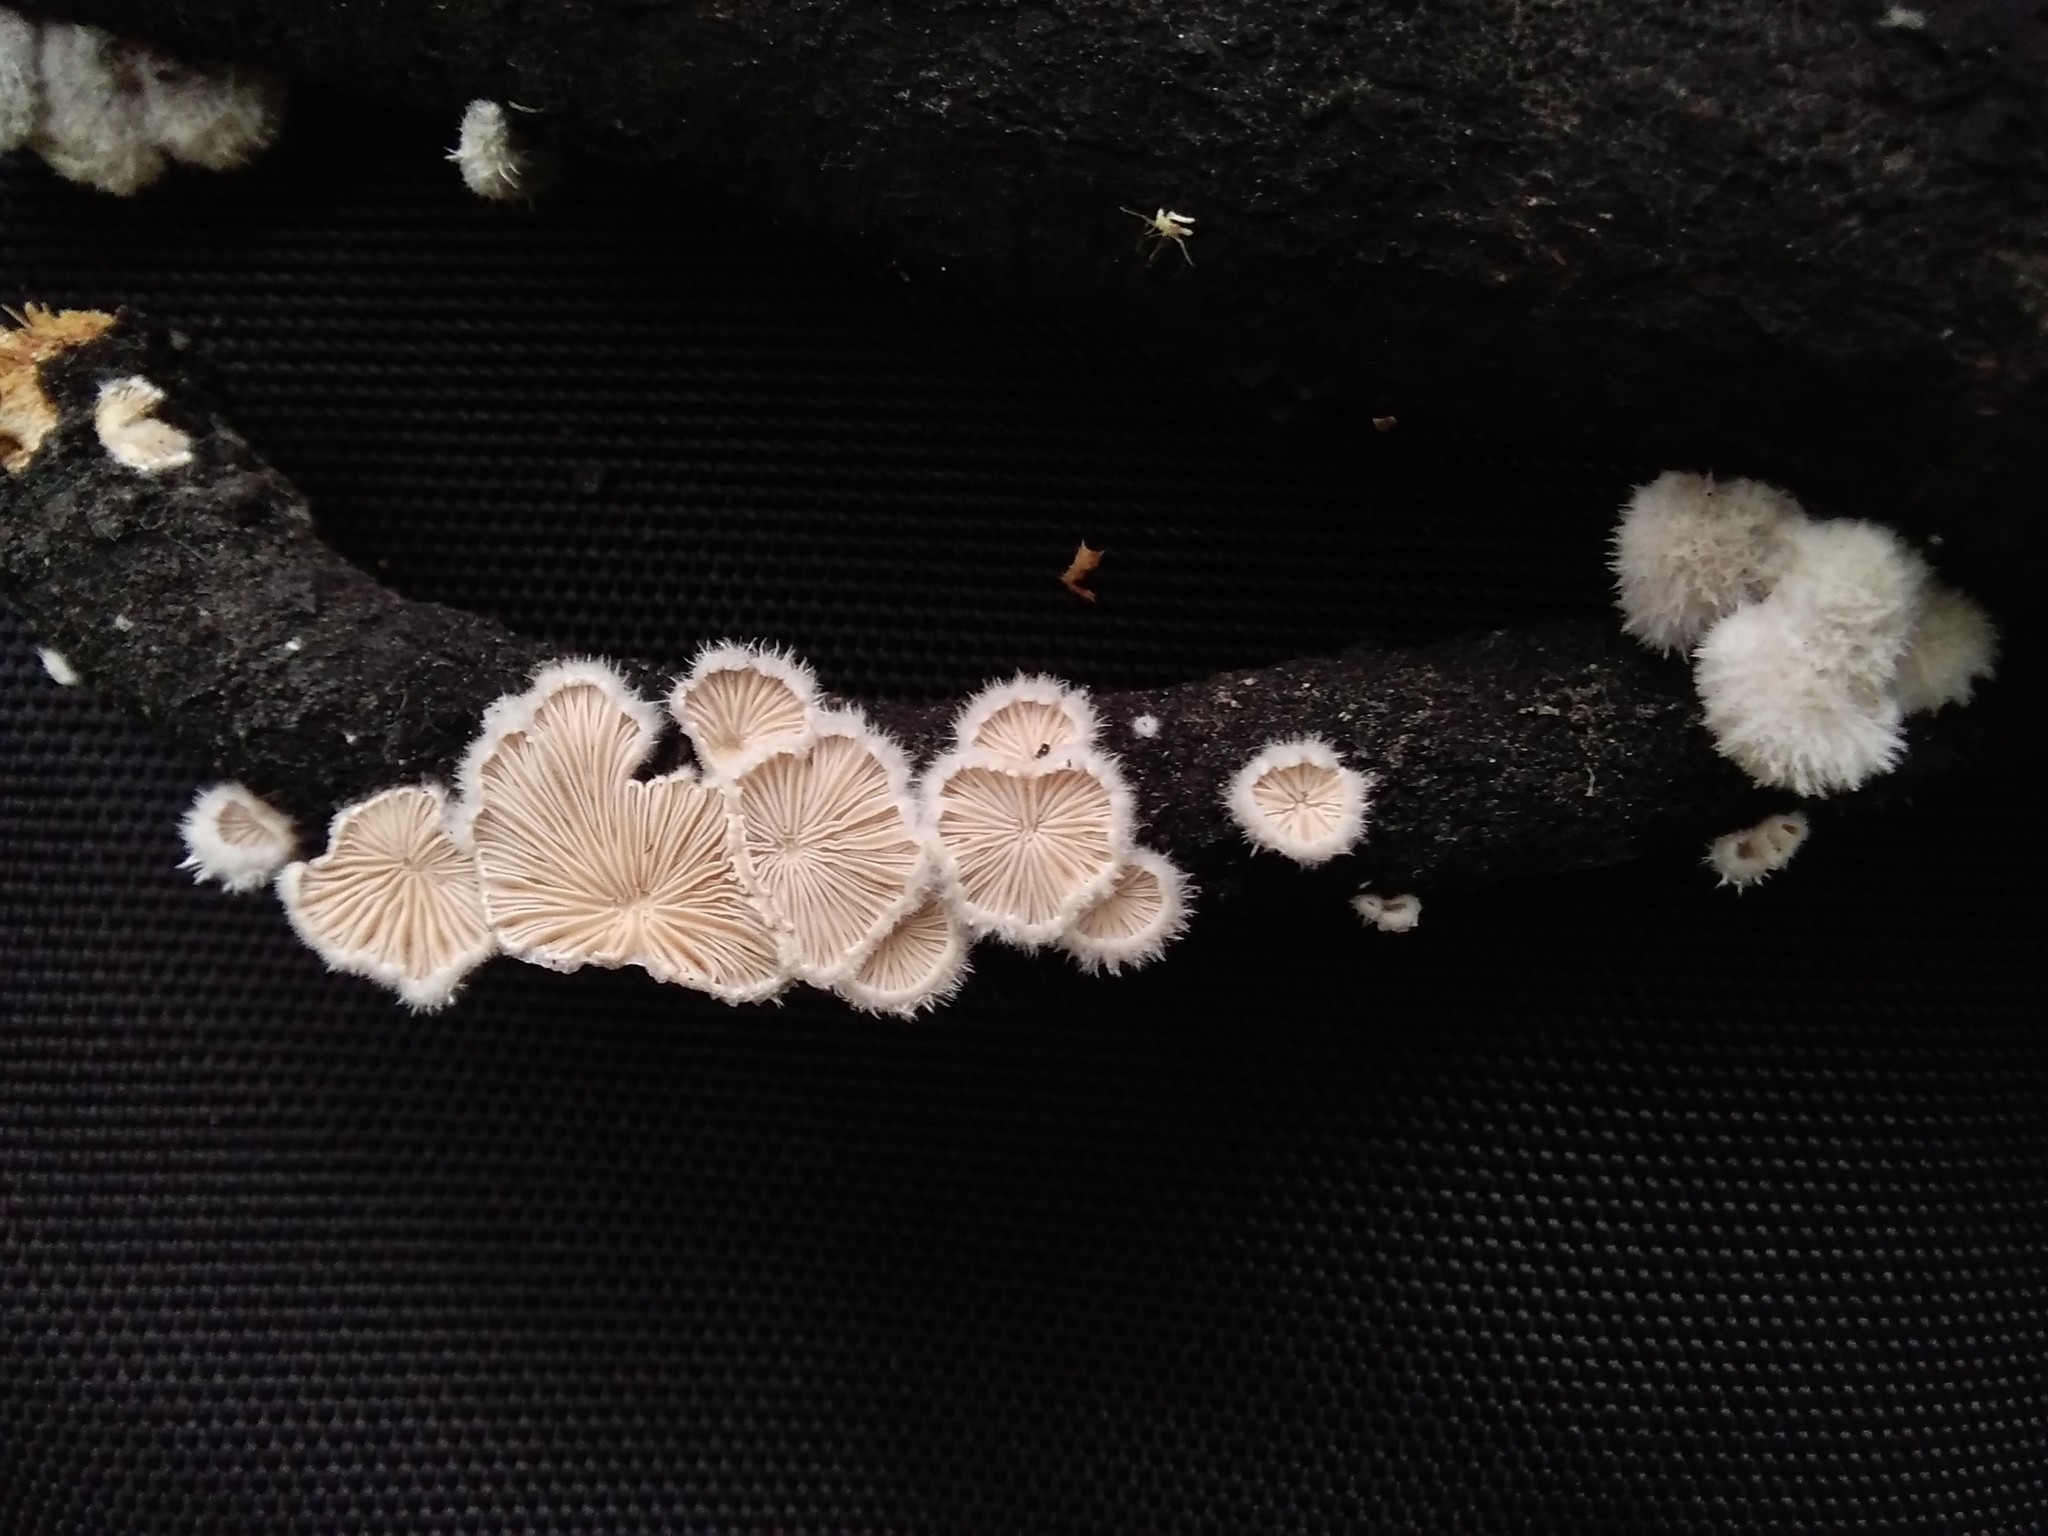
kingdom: Fungi
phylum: Basidiomycota
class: Agaricomycetes
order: Agaricales
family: Schizophyllaceae
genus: Schizophyllum
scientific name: Schizophyllum commune
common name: Common porecrust
